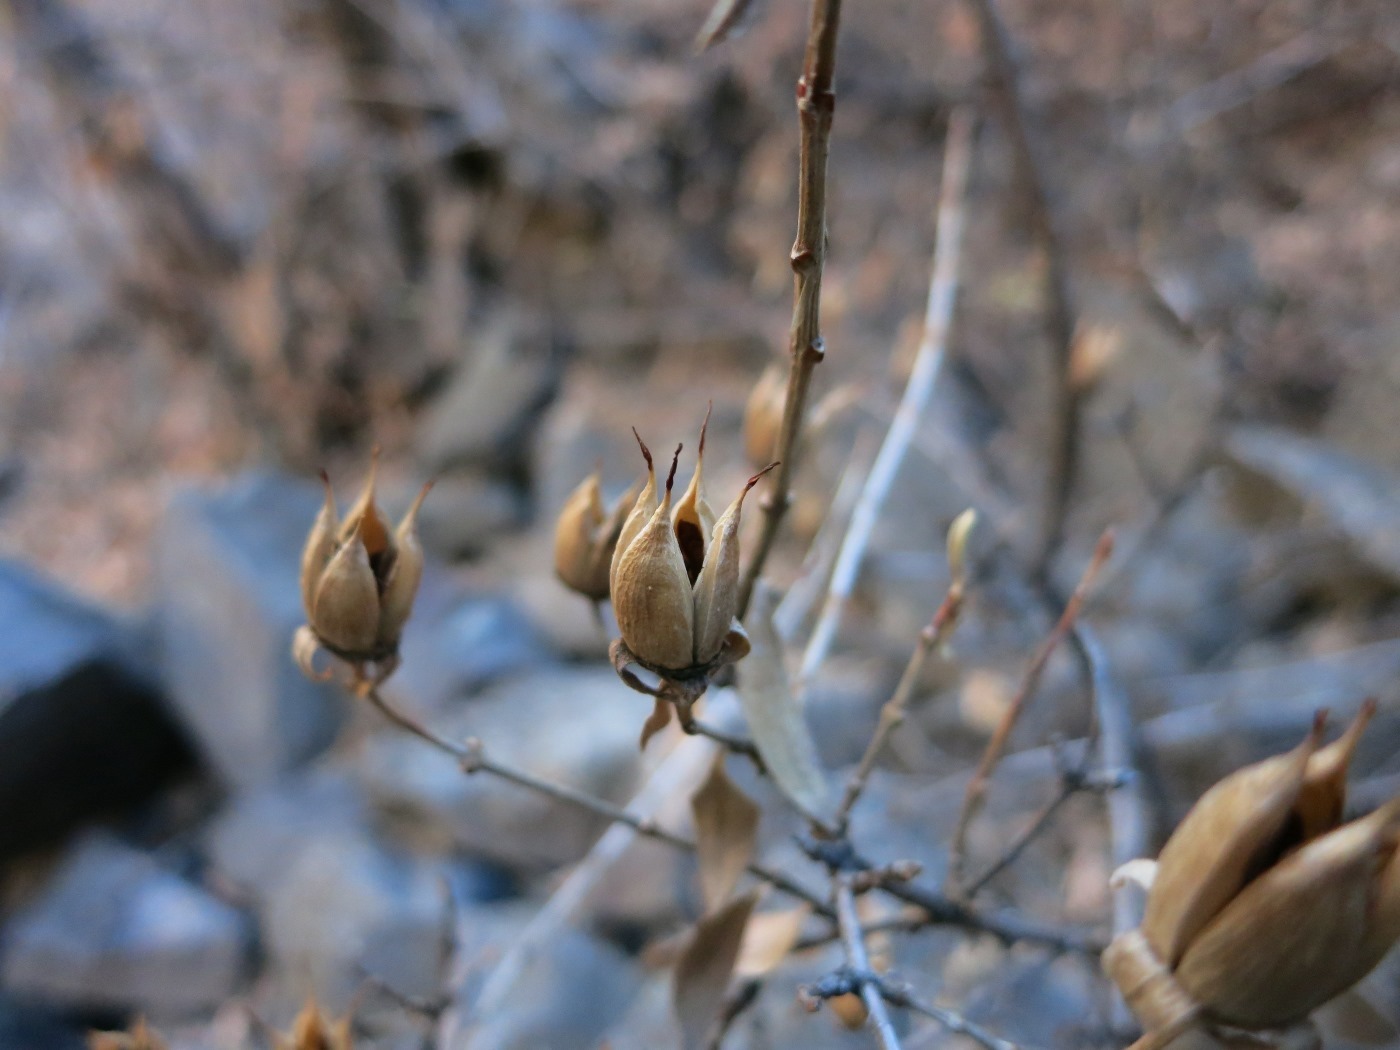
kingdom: Plantae
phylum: Tracheophyta
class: Magnoliopsida
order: Cornales
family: Hydrangeaceae
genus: Fendlera
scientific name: Fendlera rupicola
